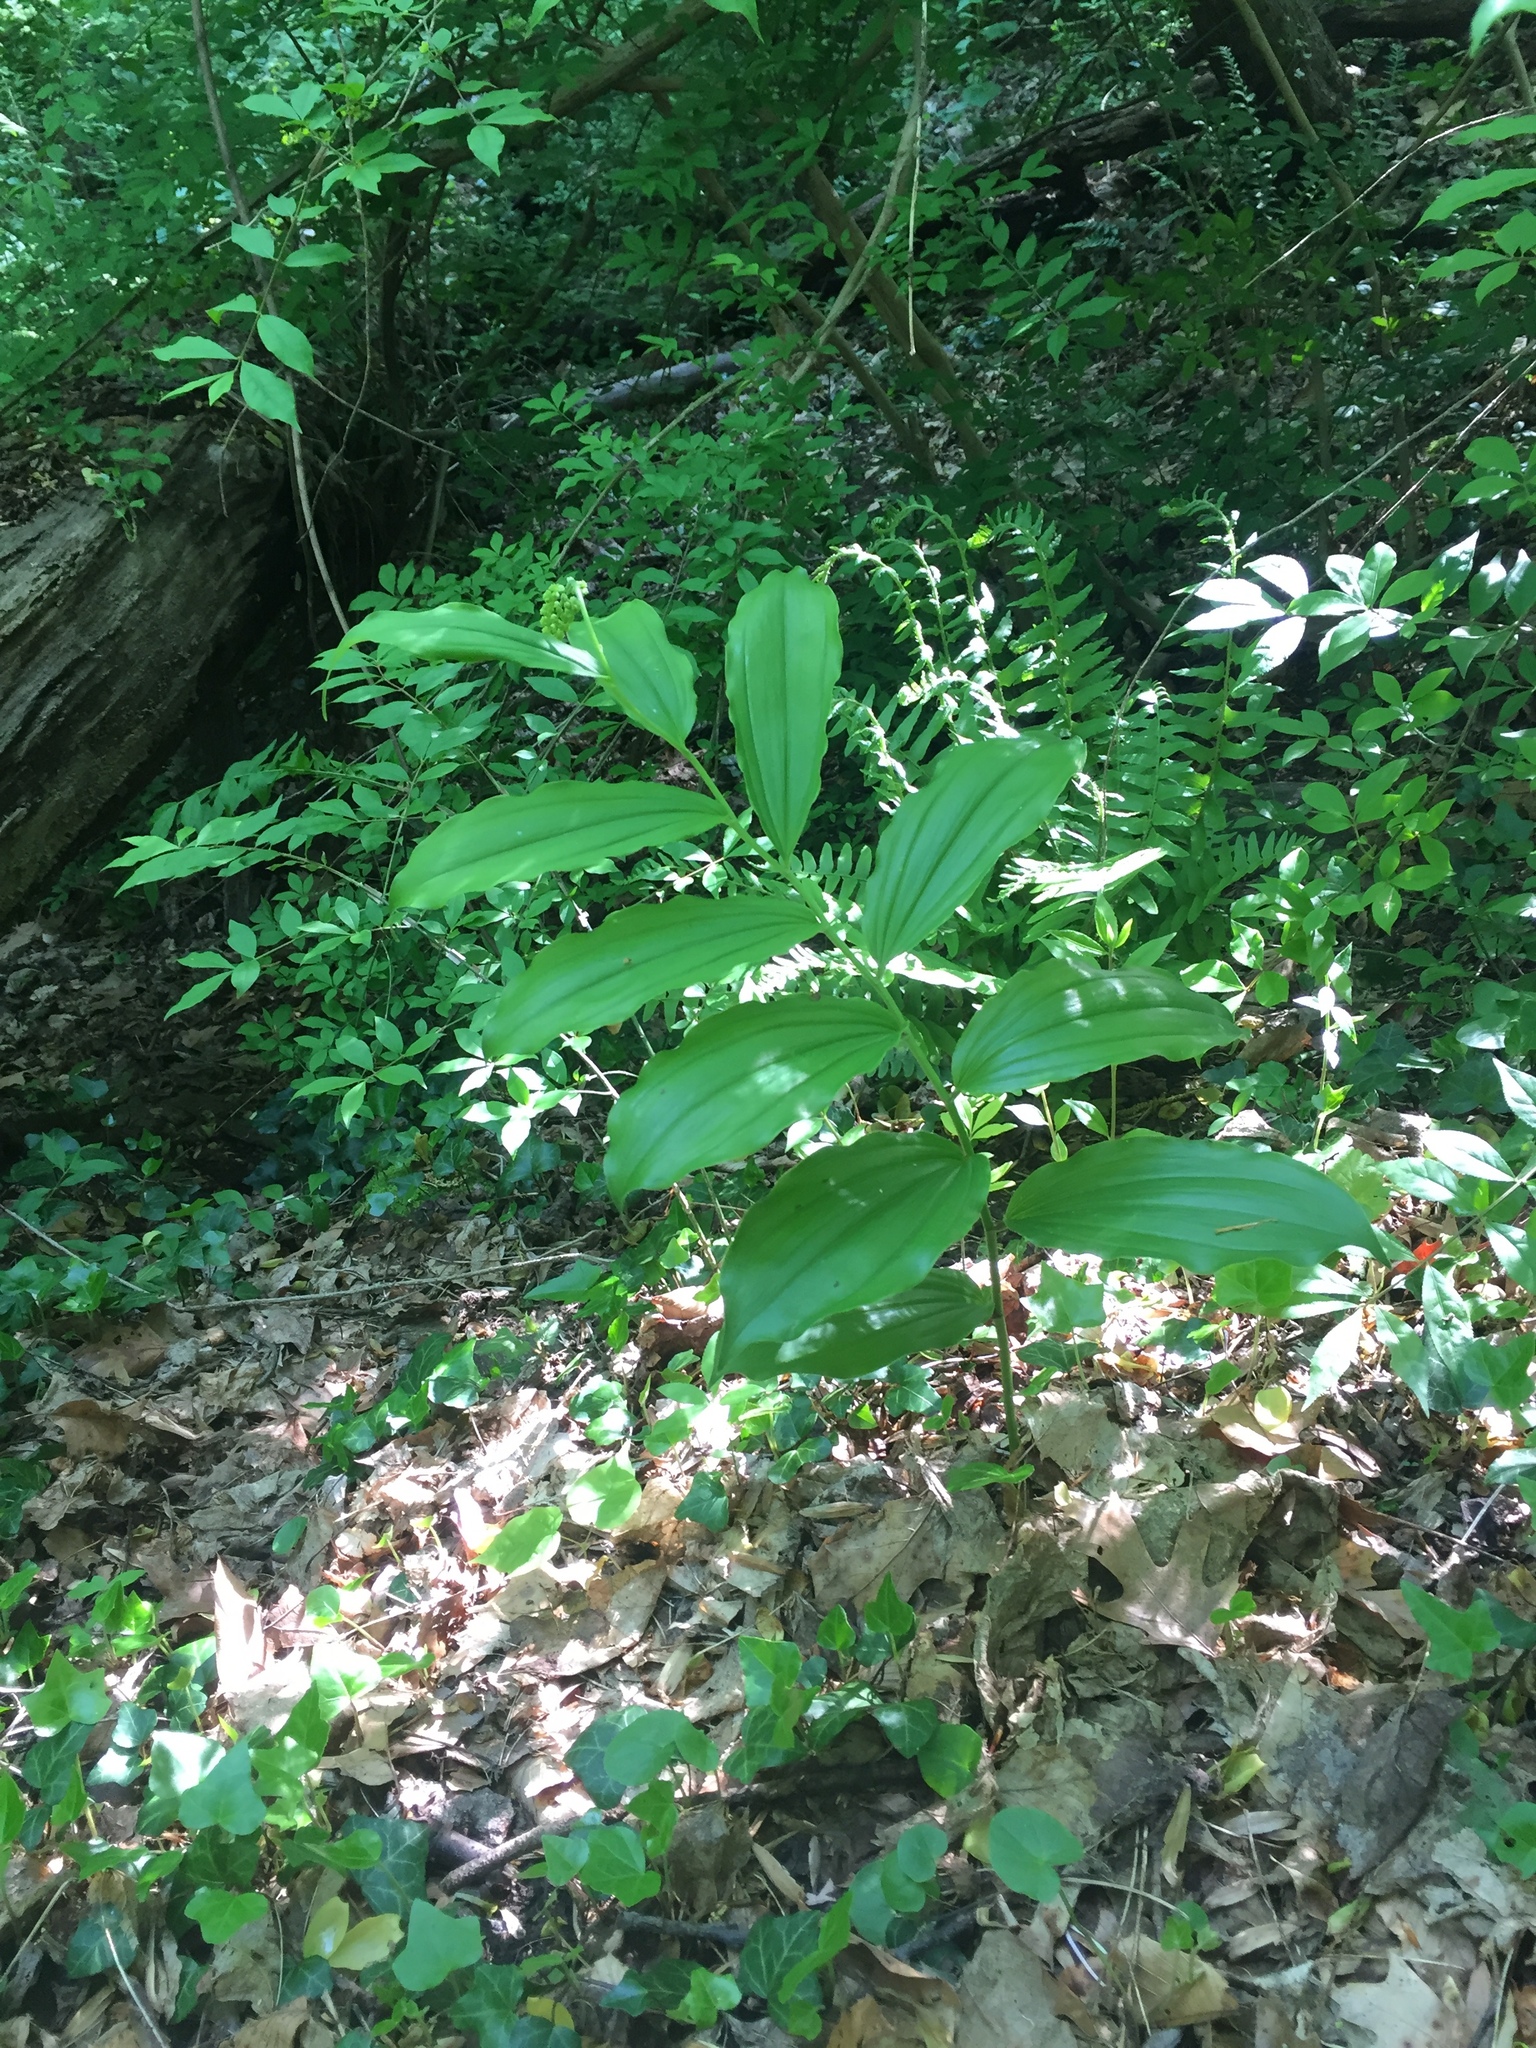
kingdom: Plantae
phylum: Tracheophyta
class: Liliopsida
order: Asparagales
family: Asparagaceae
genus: Maianthemum
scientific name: Maianthemum racemosum
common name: False spikenard
